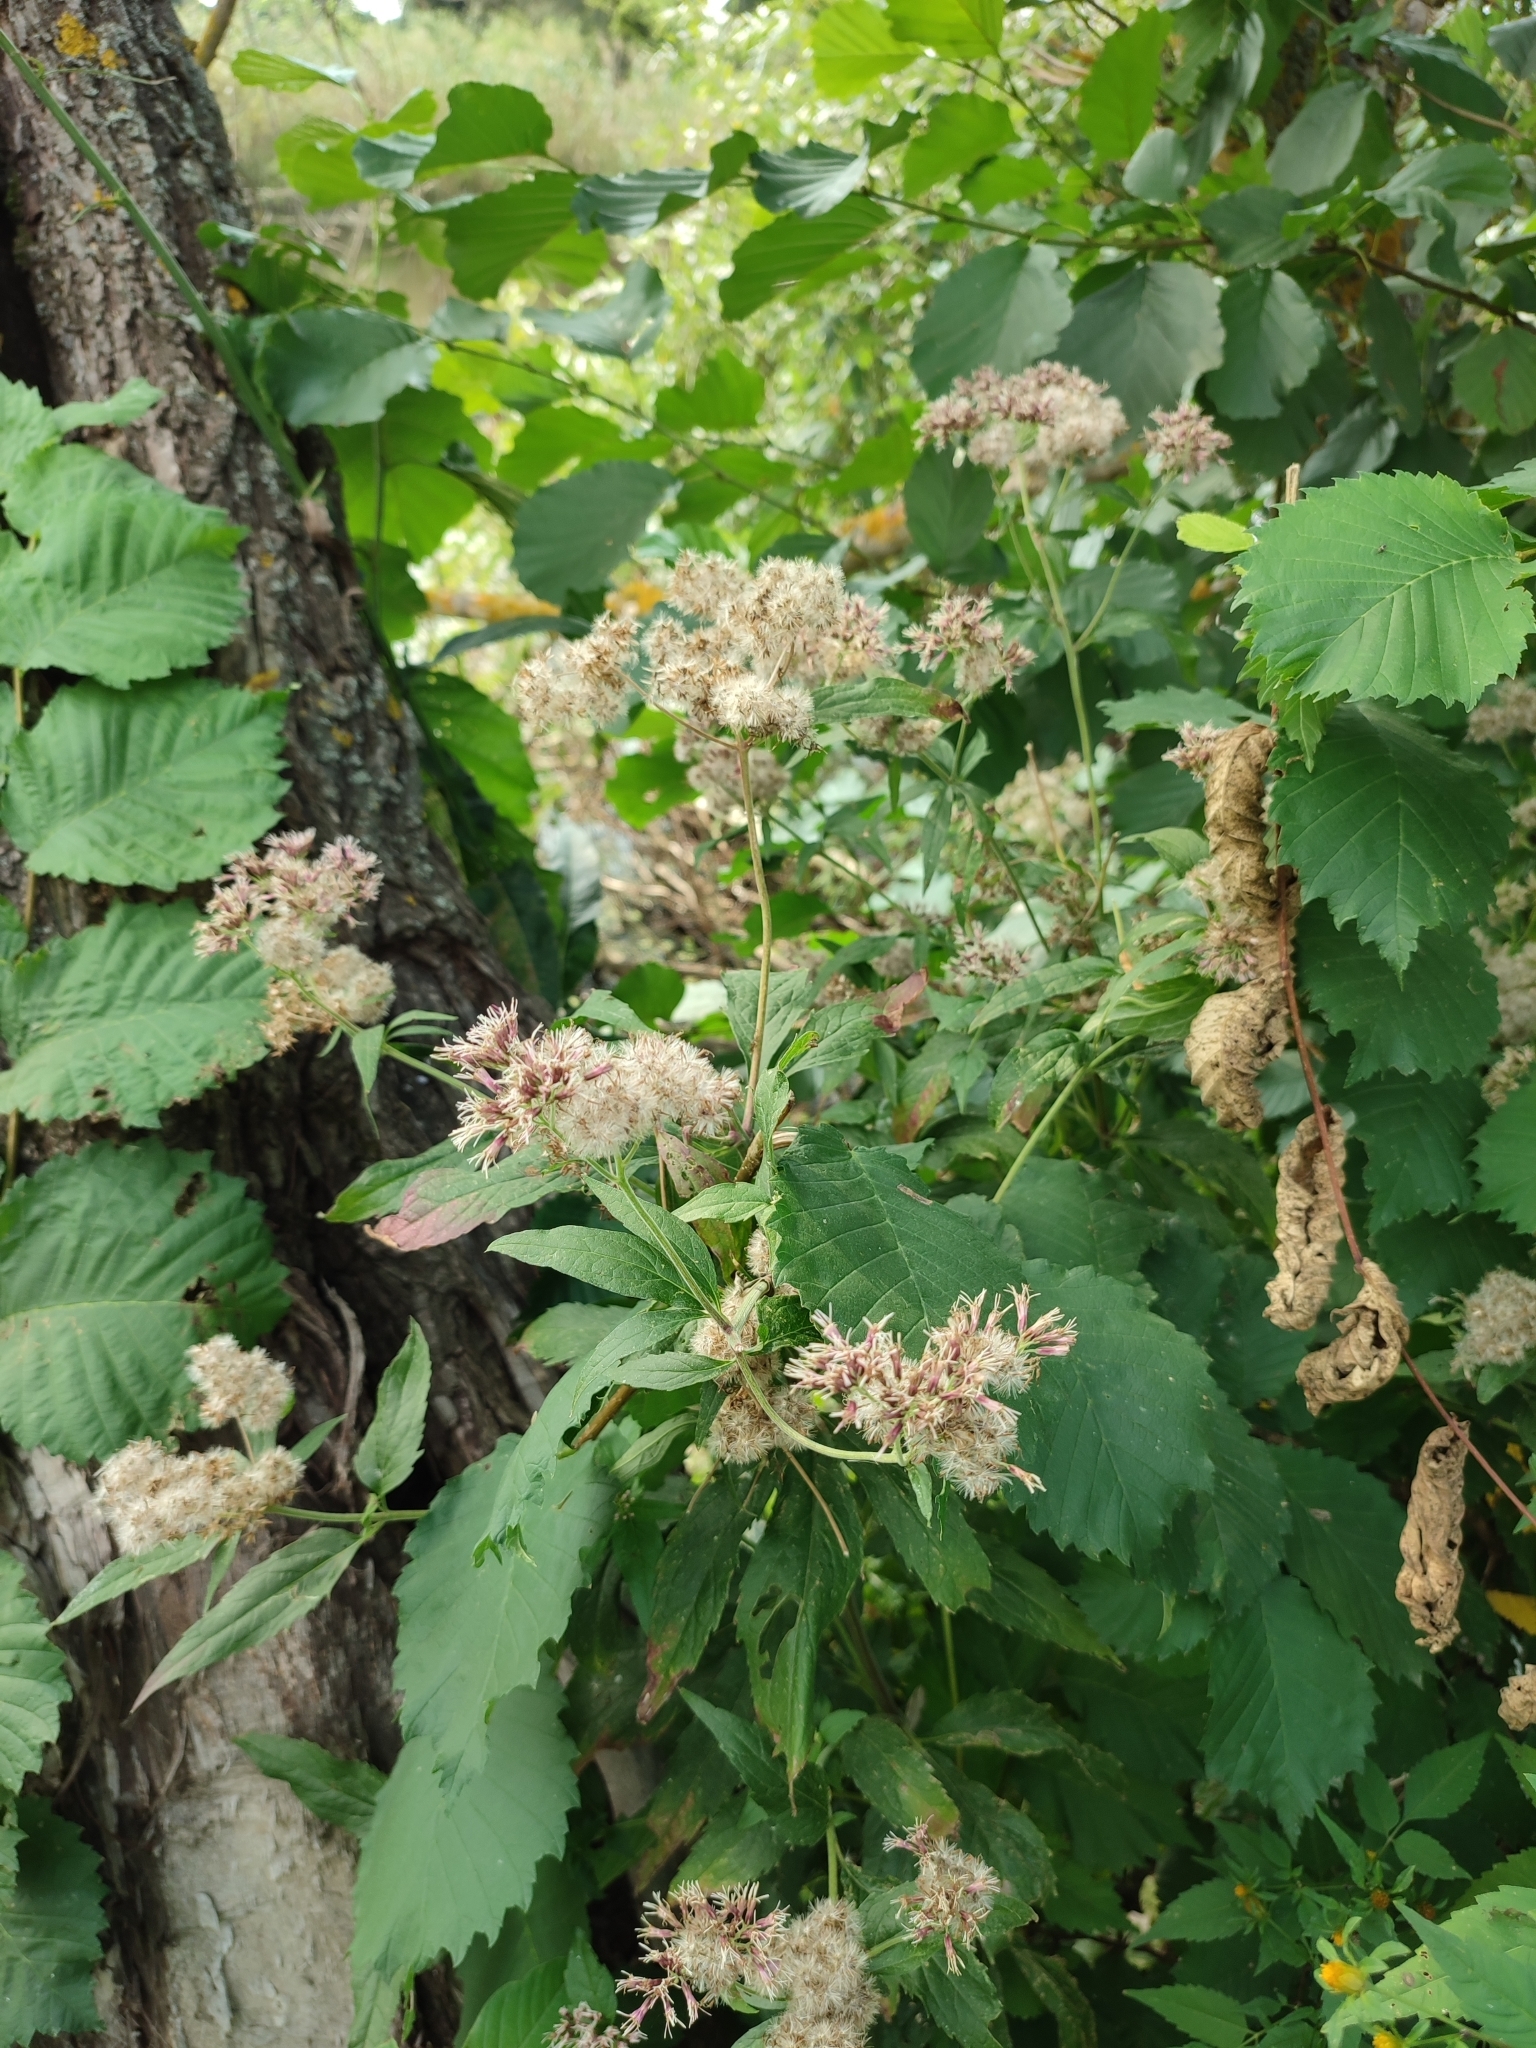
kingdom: Plantae
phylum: Tracheophyta
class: Magnoliopsida
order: Asterales
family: Asteraceae
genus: Eupatorium
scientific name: Eupatorium cannabinum
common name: Hemp-agrimony
